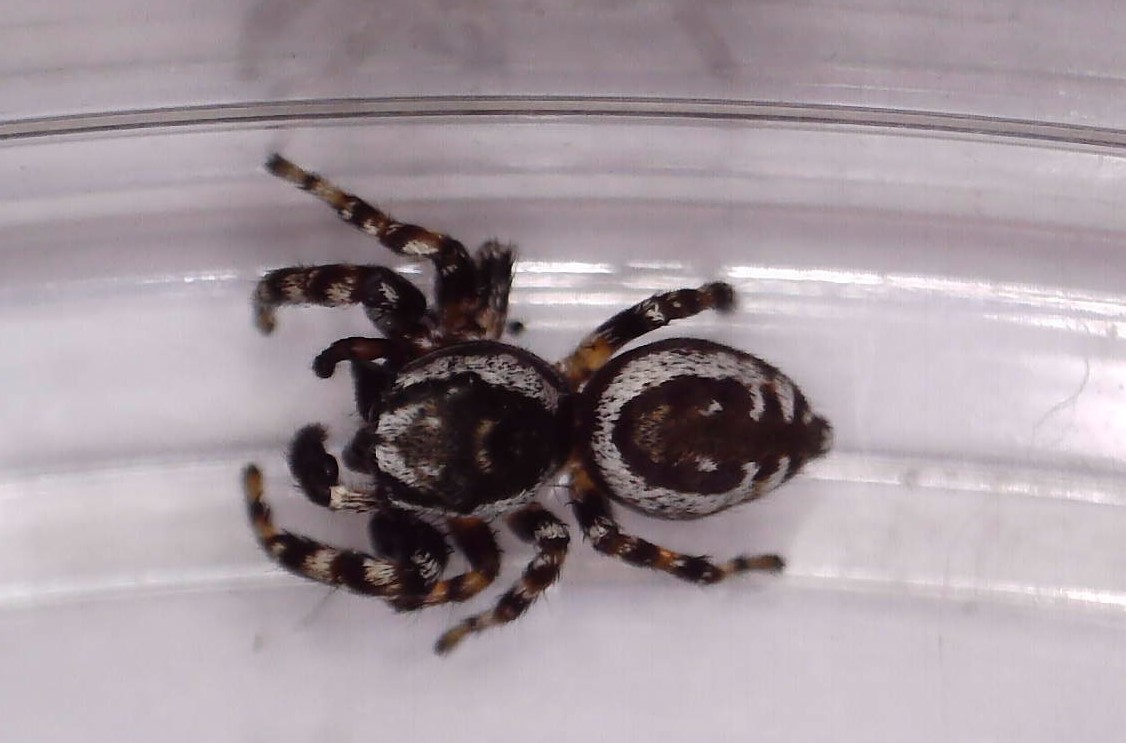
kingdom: Animalia
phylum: Arthropoda
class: Arachnida
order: Araneae
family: Salticidae
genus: Pelegrina
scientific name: Pelegrina galathea
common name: Jumping spiders
